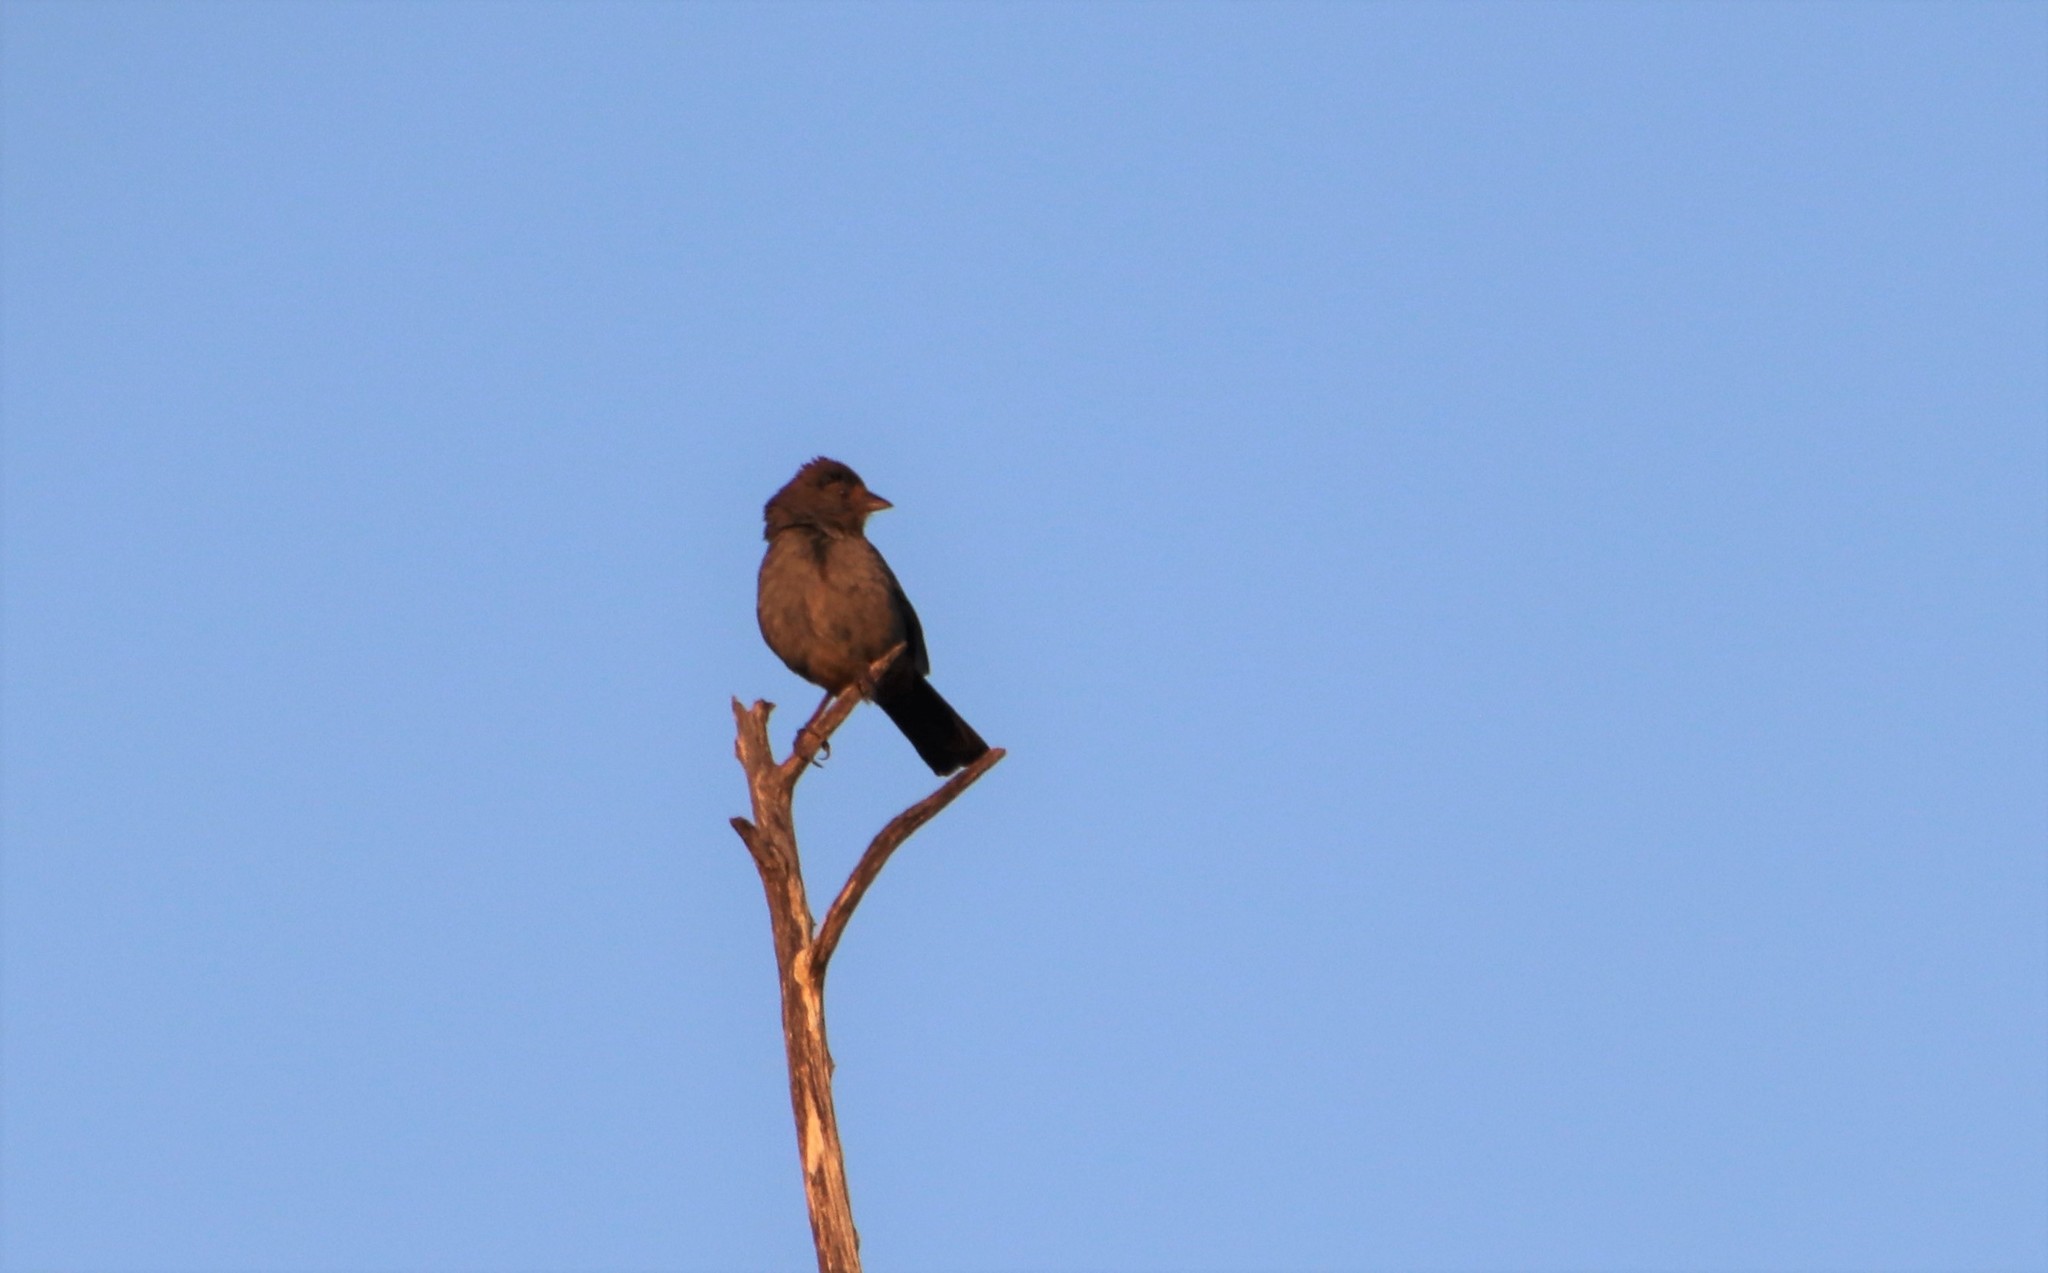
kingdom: Animalia
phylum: Chordata
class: Aves
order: Passeriformes
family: Passerellidae
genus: Melozone
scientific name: Melozone crissalis
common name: California towhee
